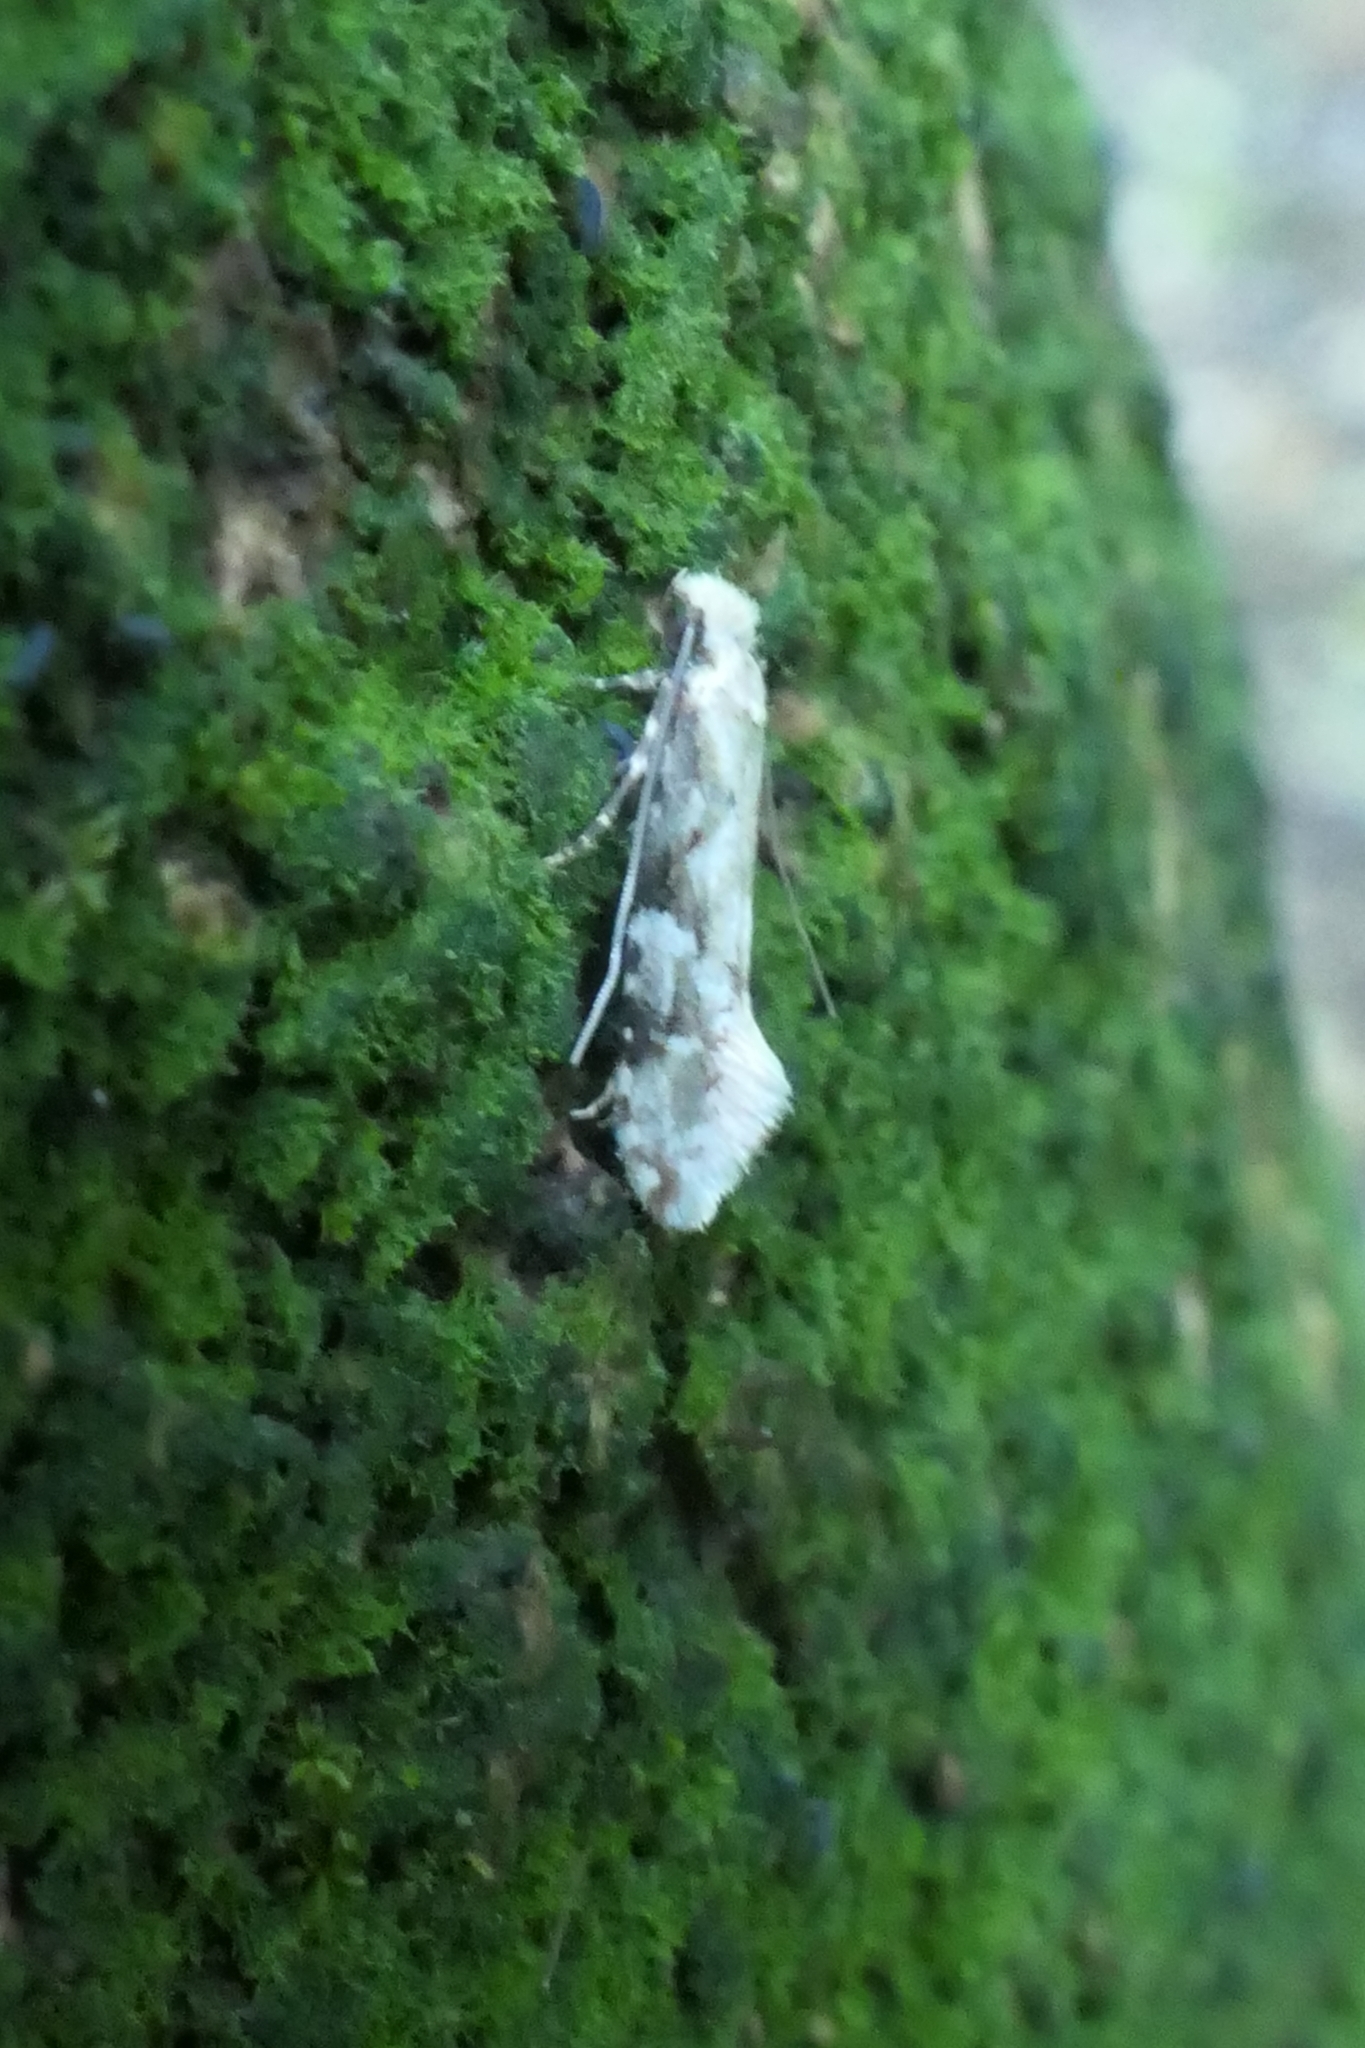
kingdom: Animalia
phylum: Arthropoda
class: Insecta
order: Lepidoptera
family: Tineidae
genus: Crypsitricha
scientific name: Crypsitricha mesotypa
